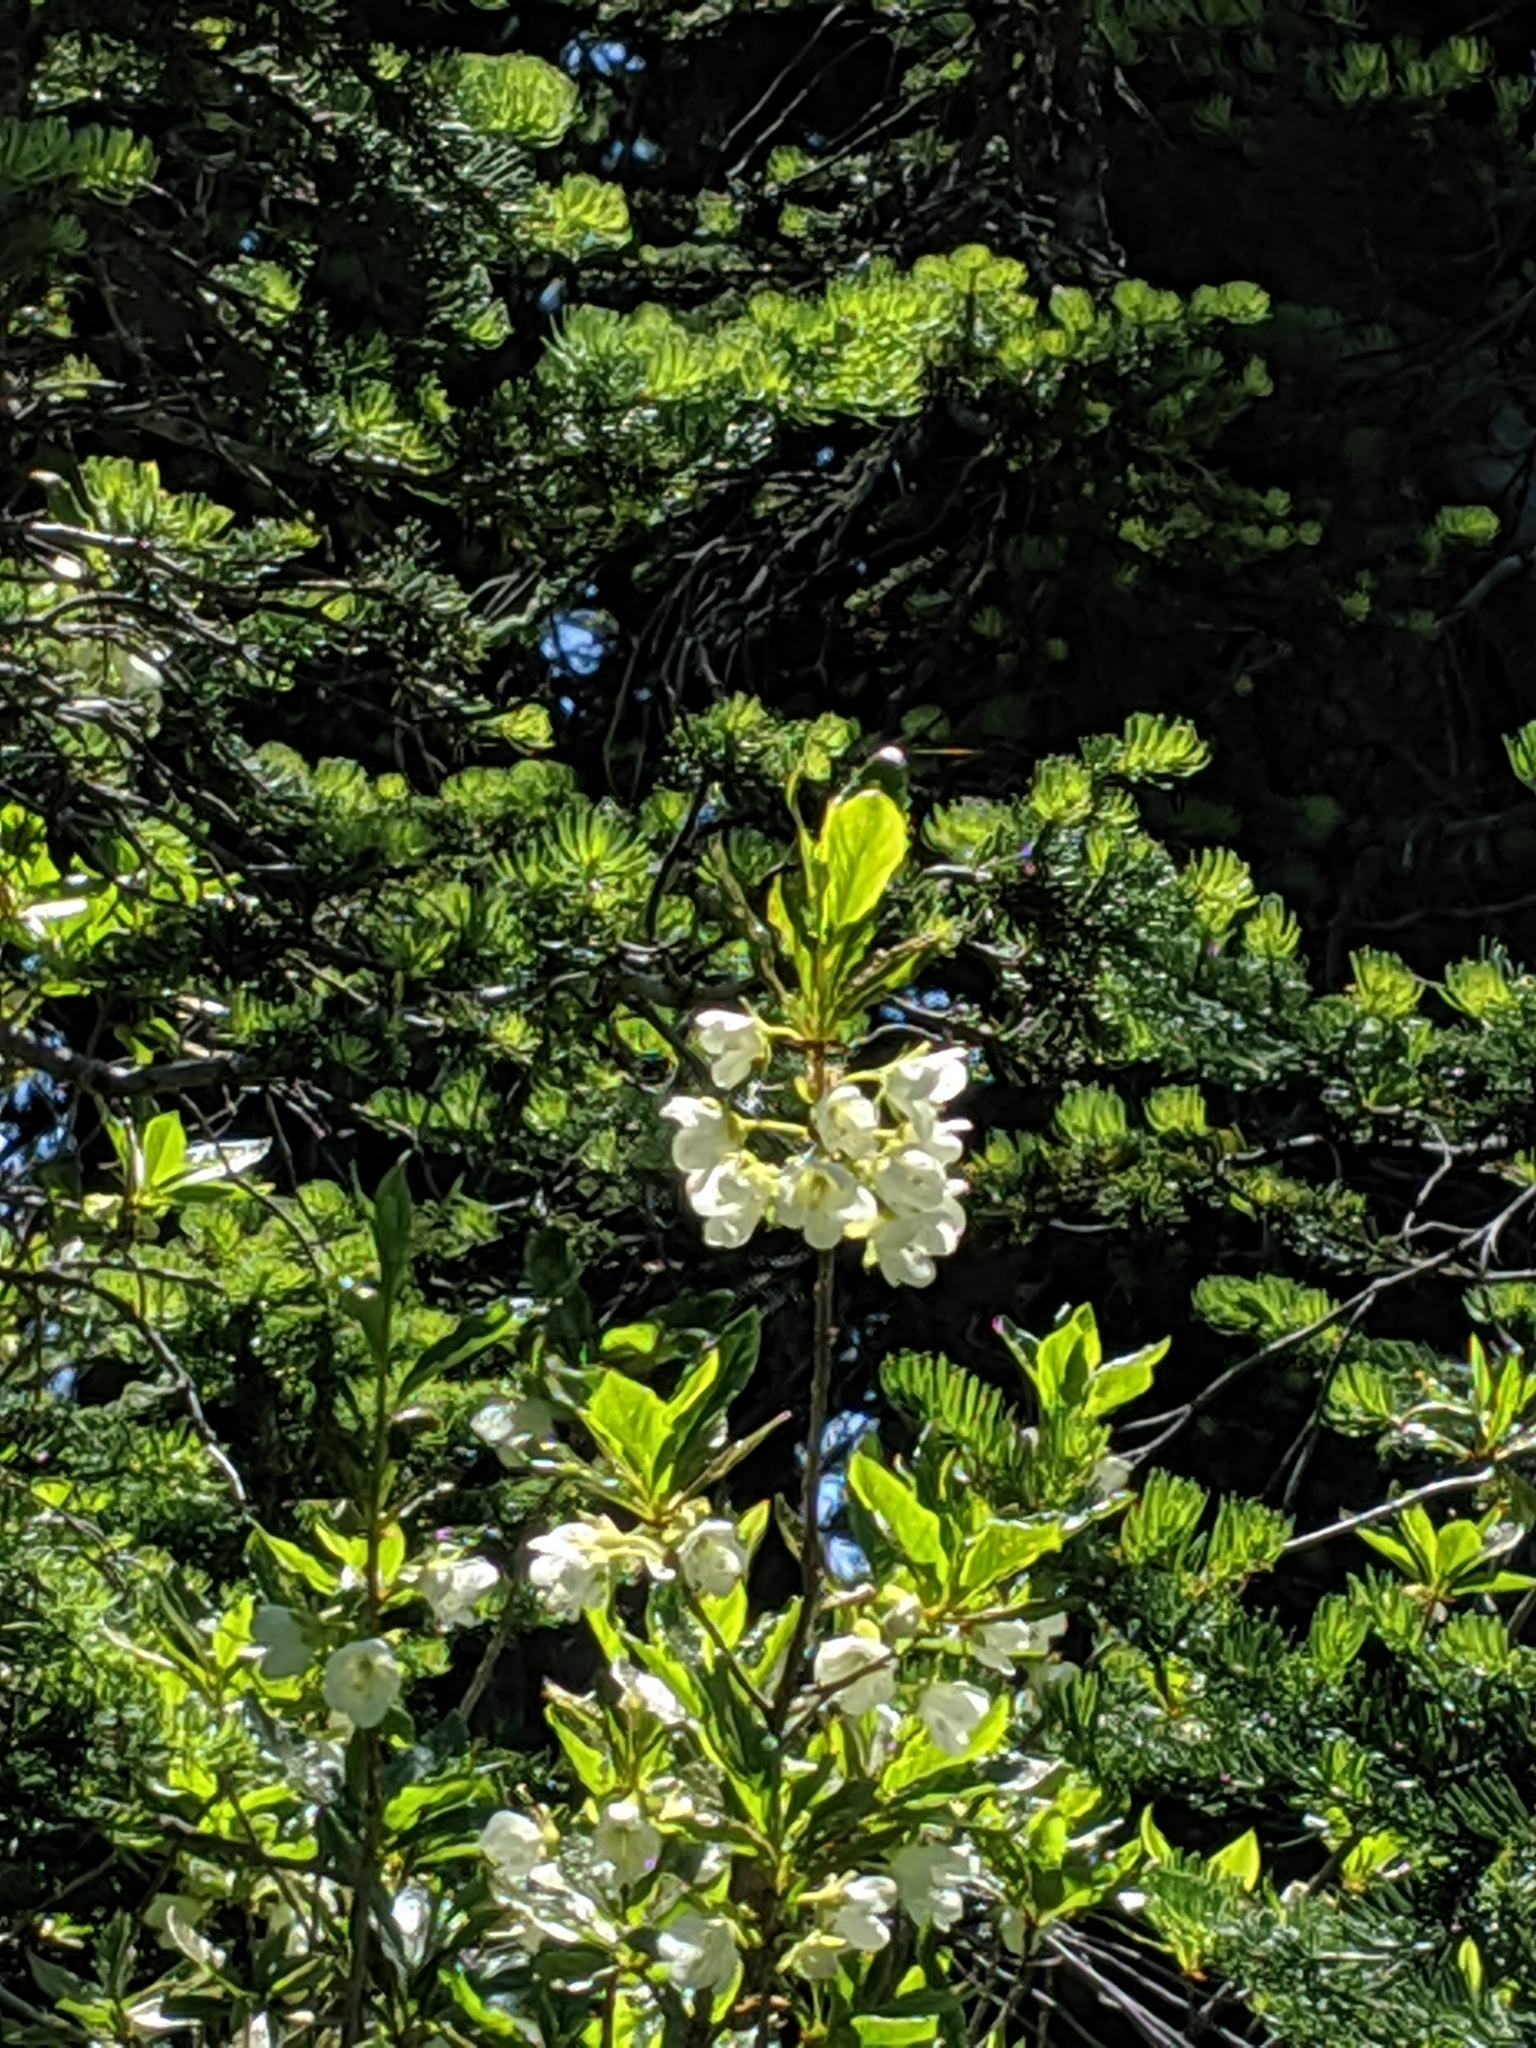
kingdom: Plantae
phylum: Tracheophyta
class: Magnoliopsida
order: Ericales
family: Ericaceae
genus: Rhododendron
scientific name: Rhododendron albiflorum
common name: White rhododendron
